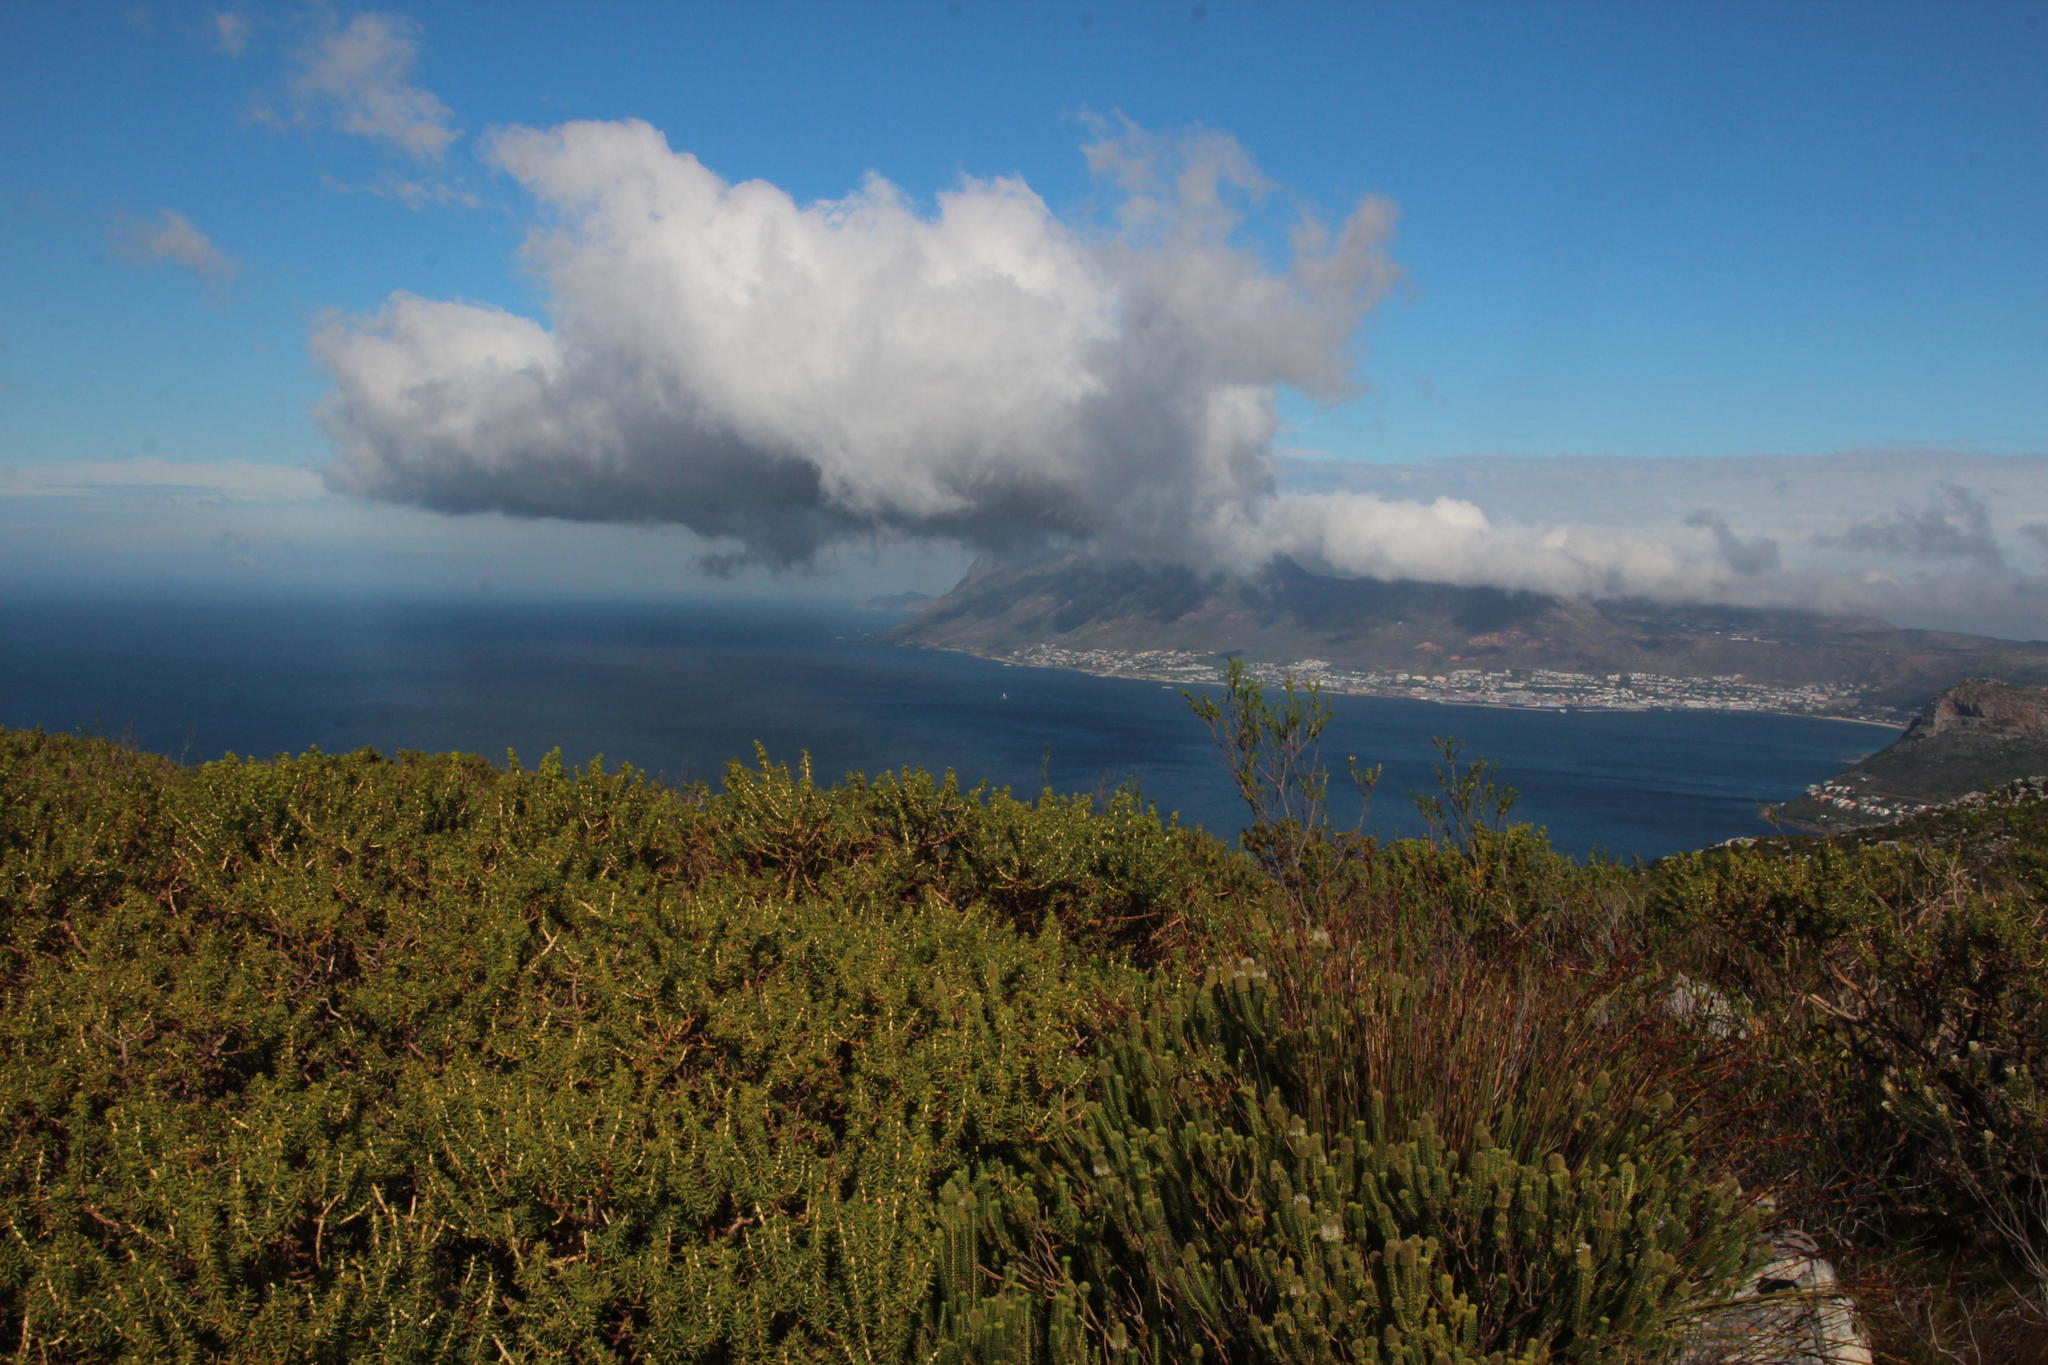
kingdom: Plantae
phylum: Tracheophyta
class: Magnoliopsida
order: Fabales
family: Fabaceae
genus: Aspalathus
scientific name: Aspalathus capensis
